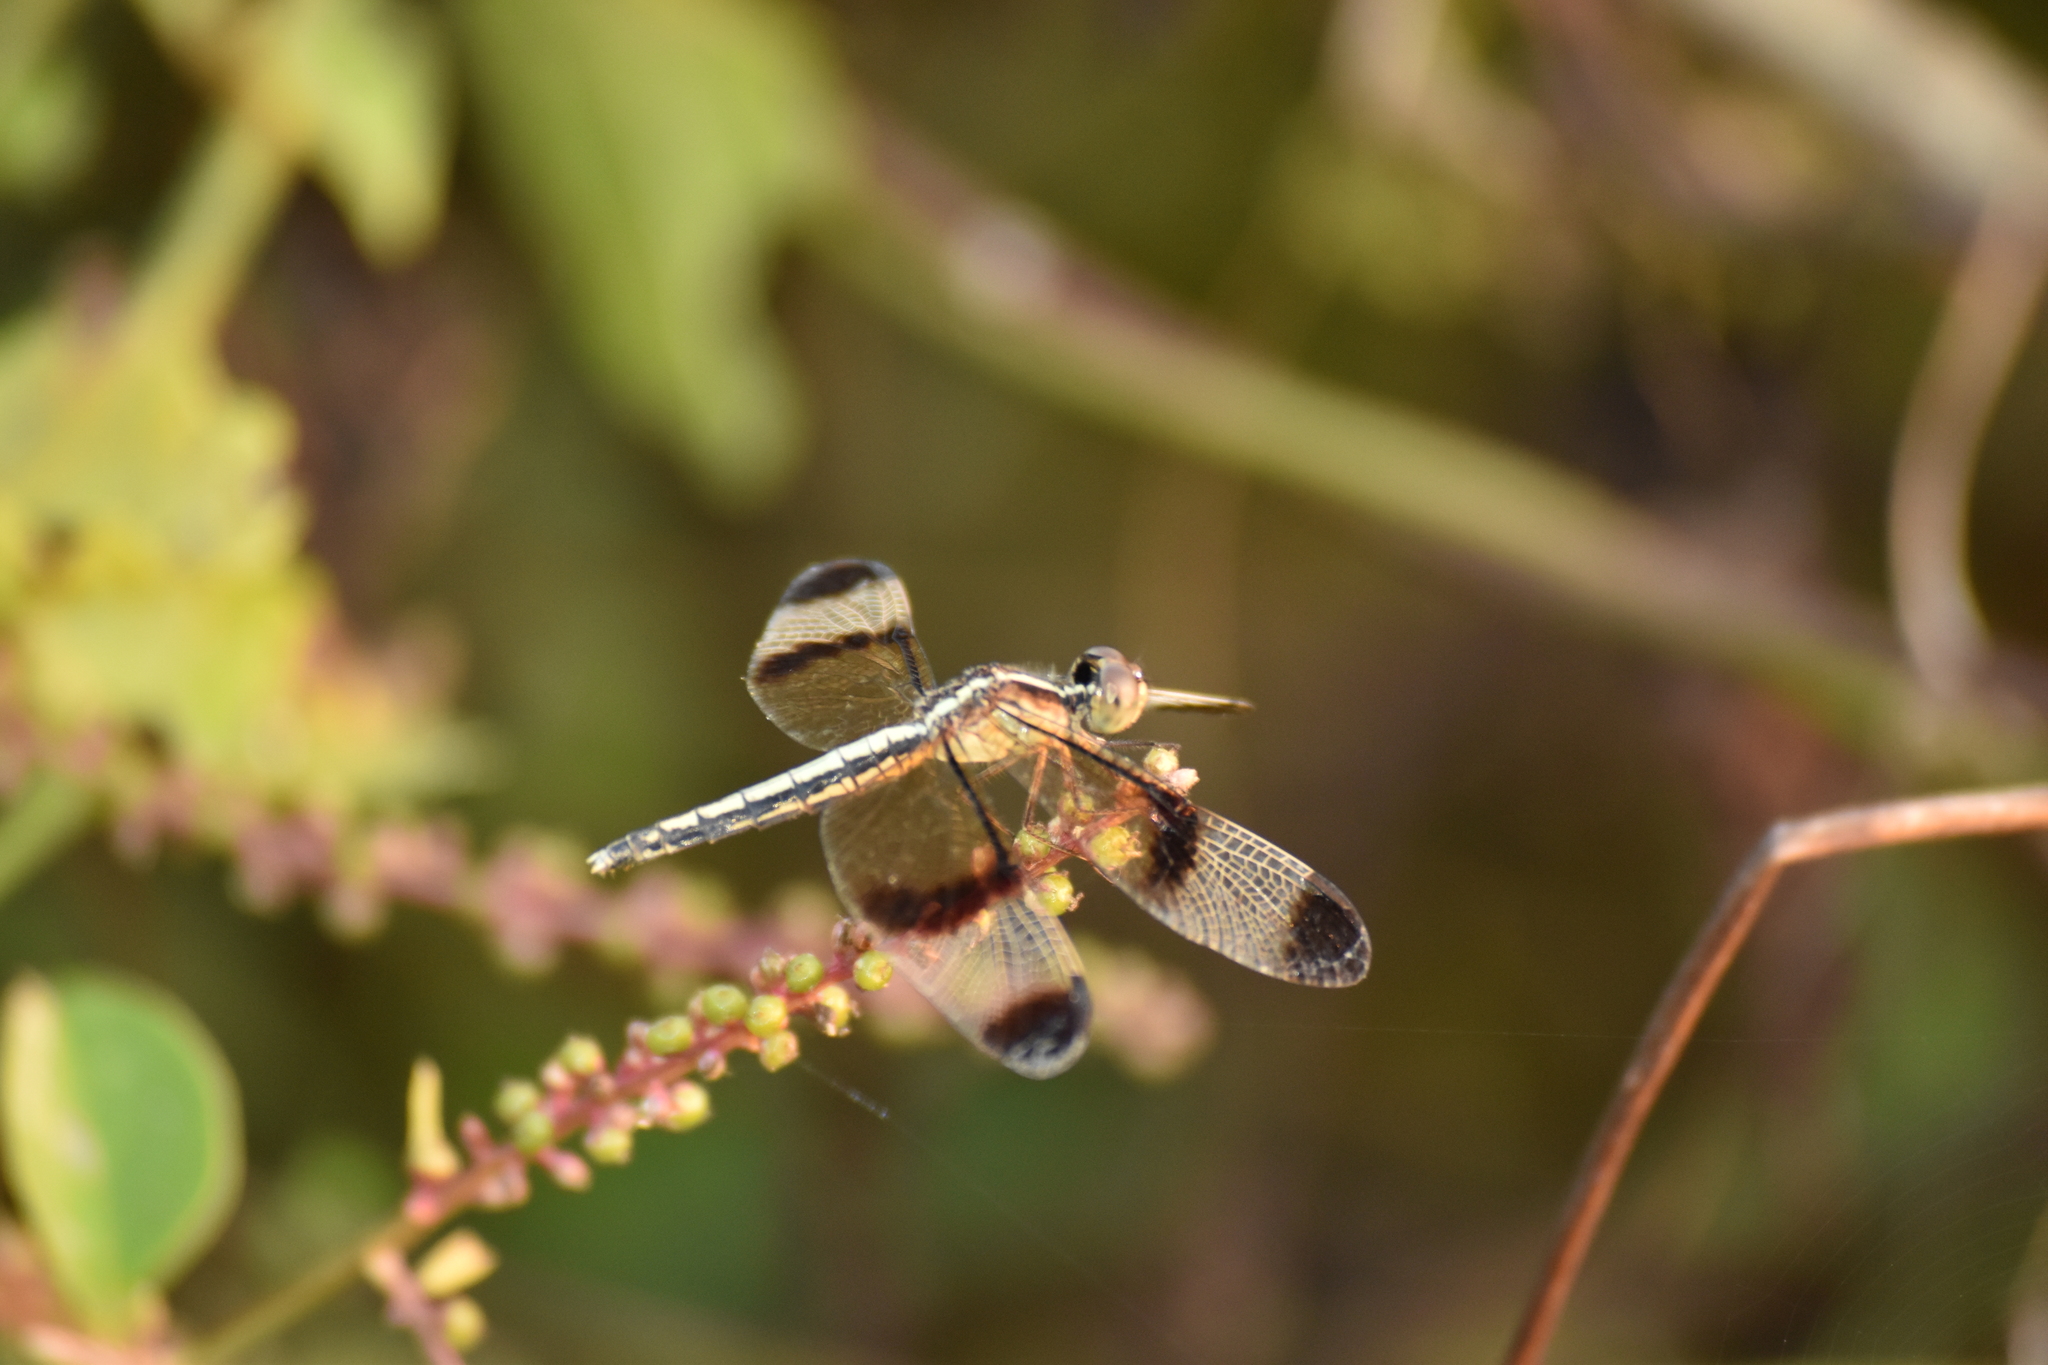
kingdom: Animalia
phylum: Arthropoda
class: Insecta
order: Odonata
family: Libellulidae
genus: Neurothemis
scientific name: Neurothemis tullia
